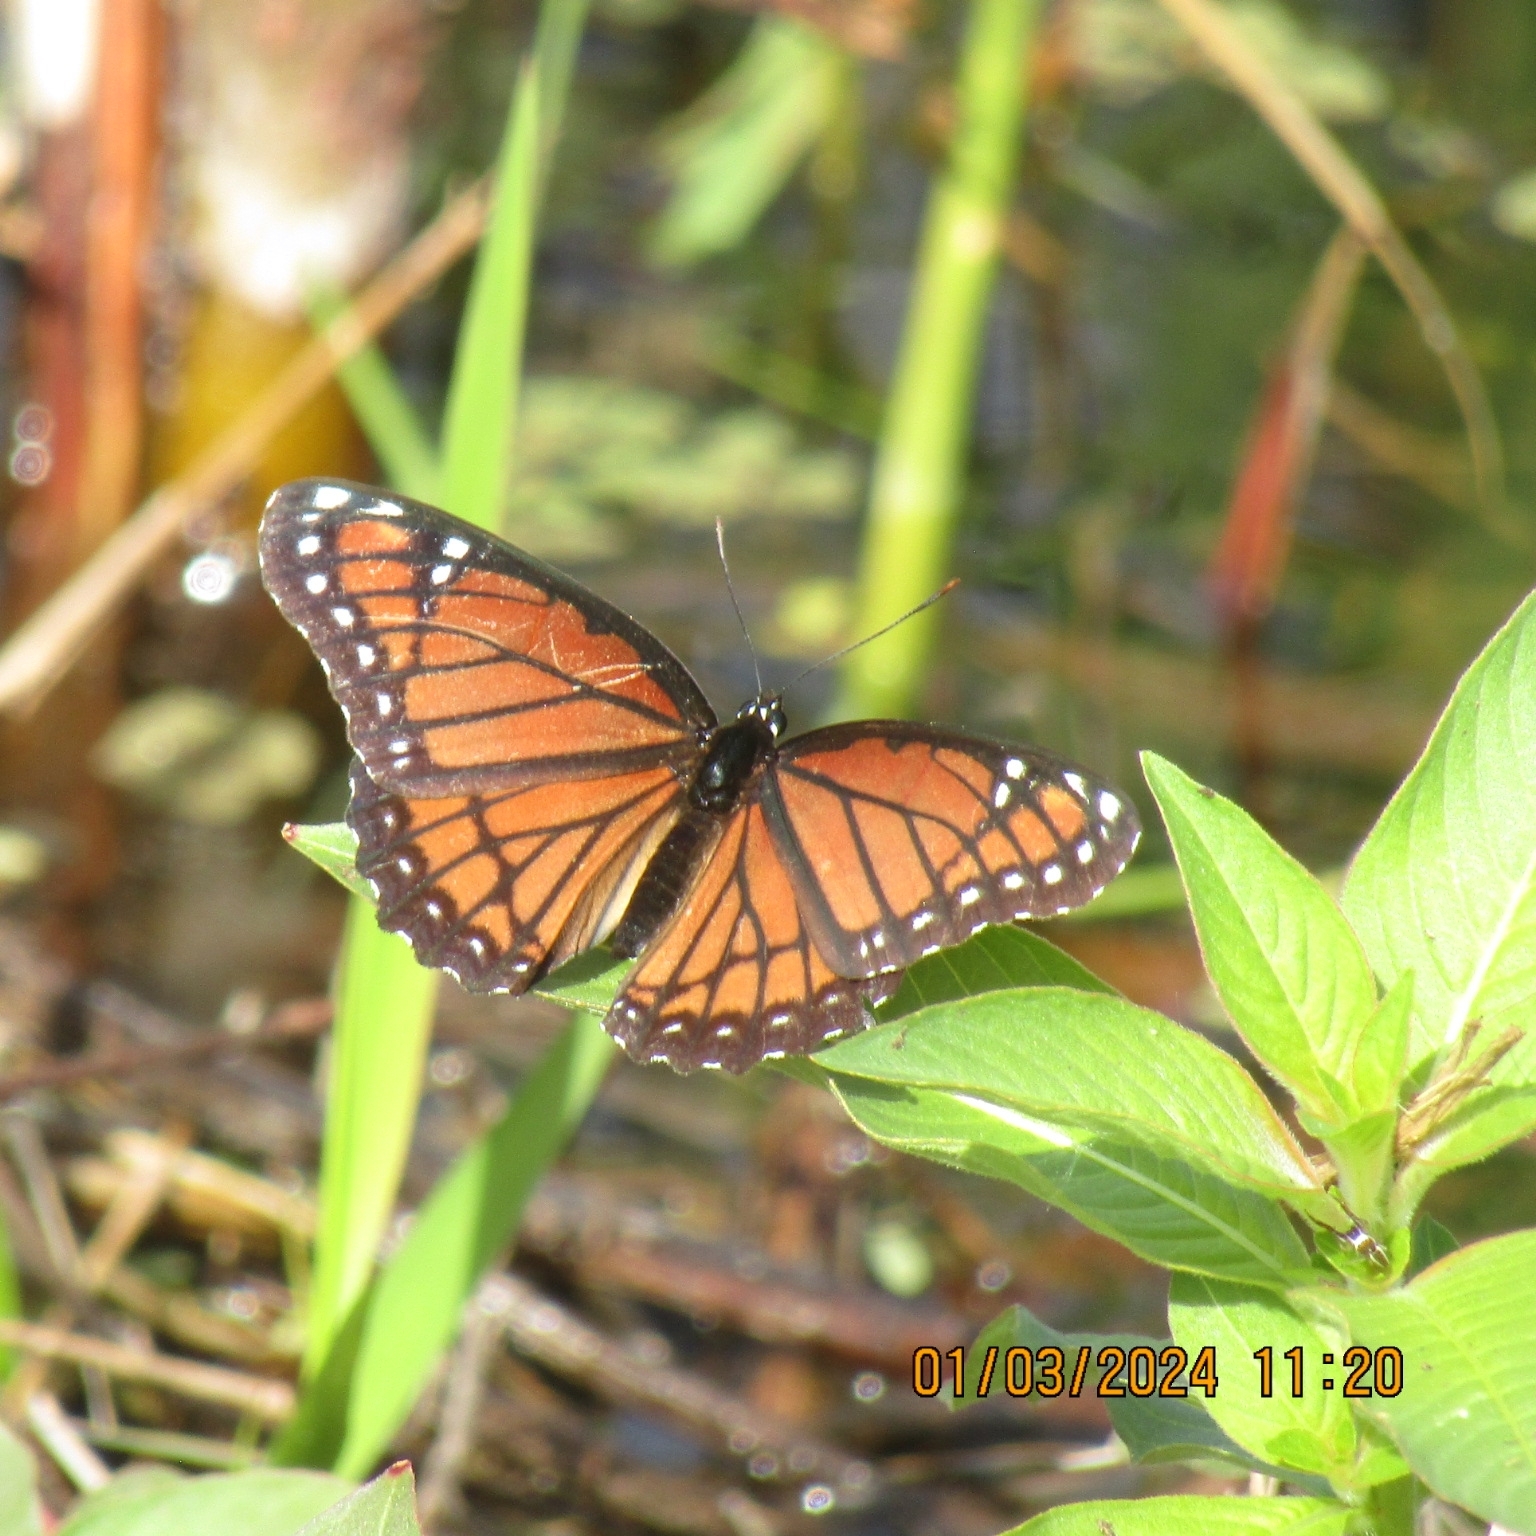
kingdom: Animalia
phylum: Arthropoda
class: Insecta
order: Lepidoptera
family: Nymphalidae
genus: Limenitis
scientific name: Limenitis archippus
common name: Viceroy
